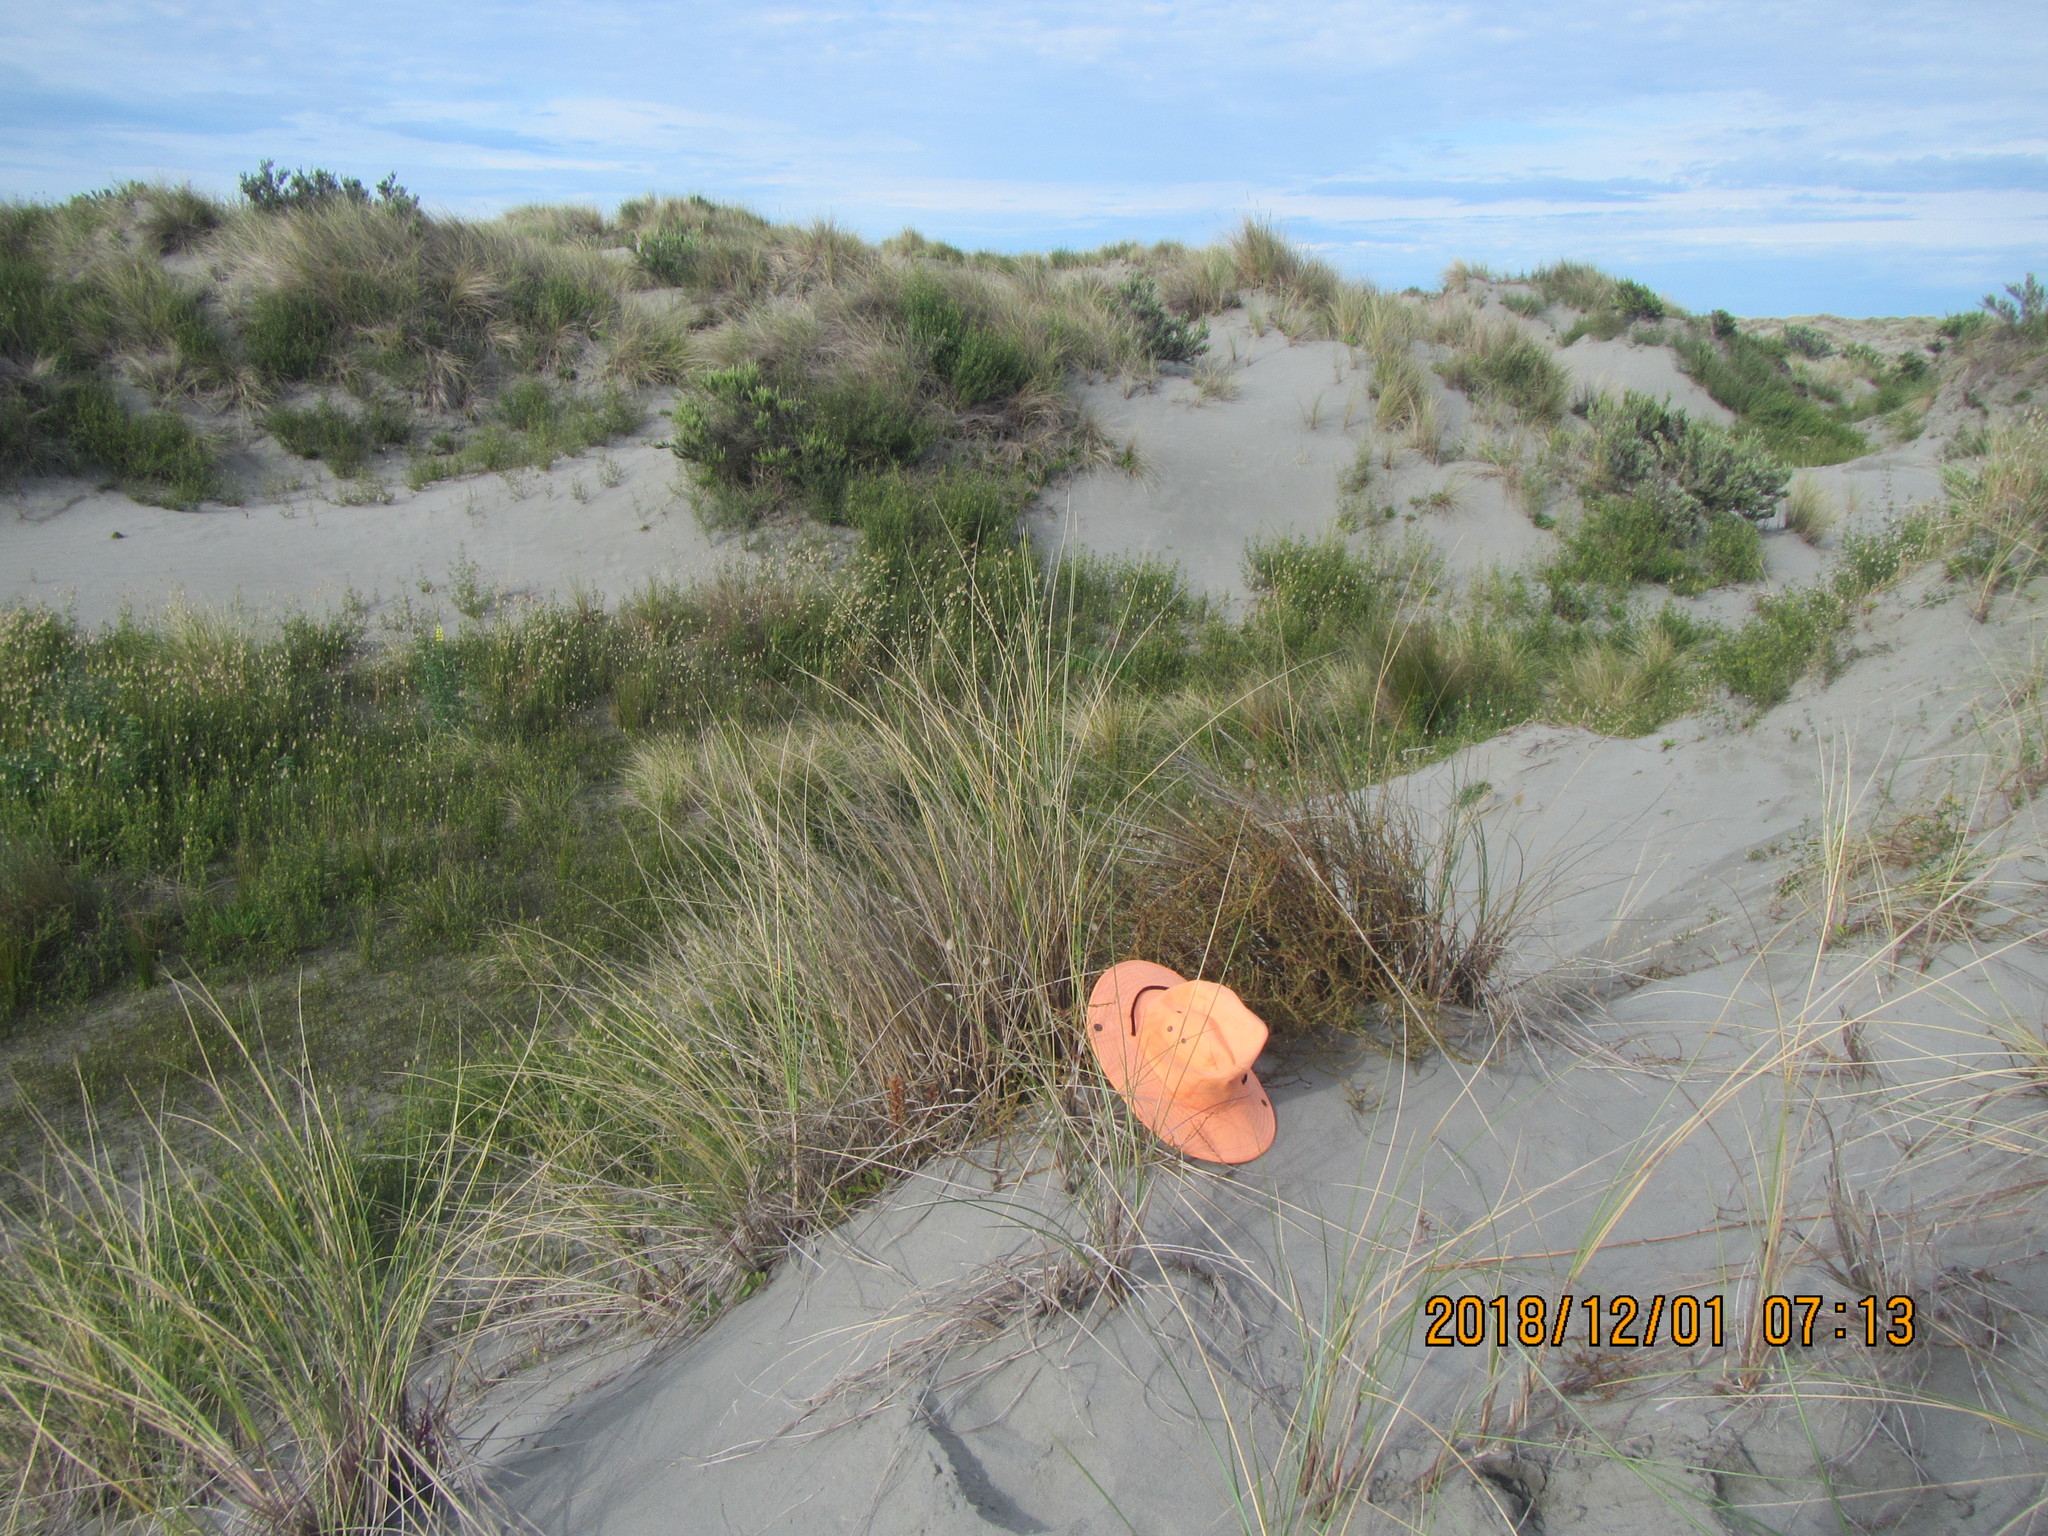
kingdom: Plantae
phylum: Tracheophyta
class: Magnoliopsida
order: Gentianales
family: Rubiaceae
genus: Coprosma
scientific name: Coprosma acerosa
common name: Sand coprosma
